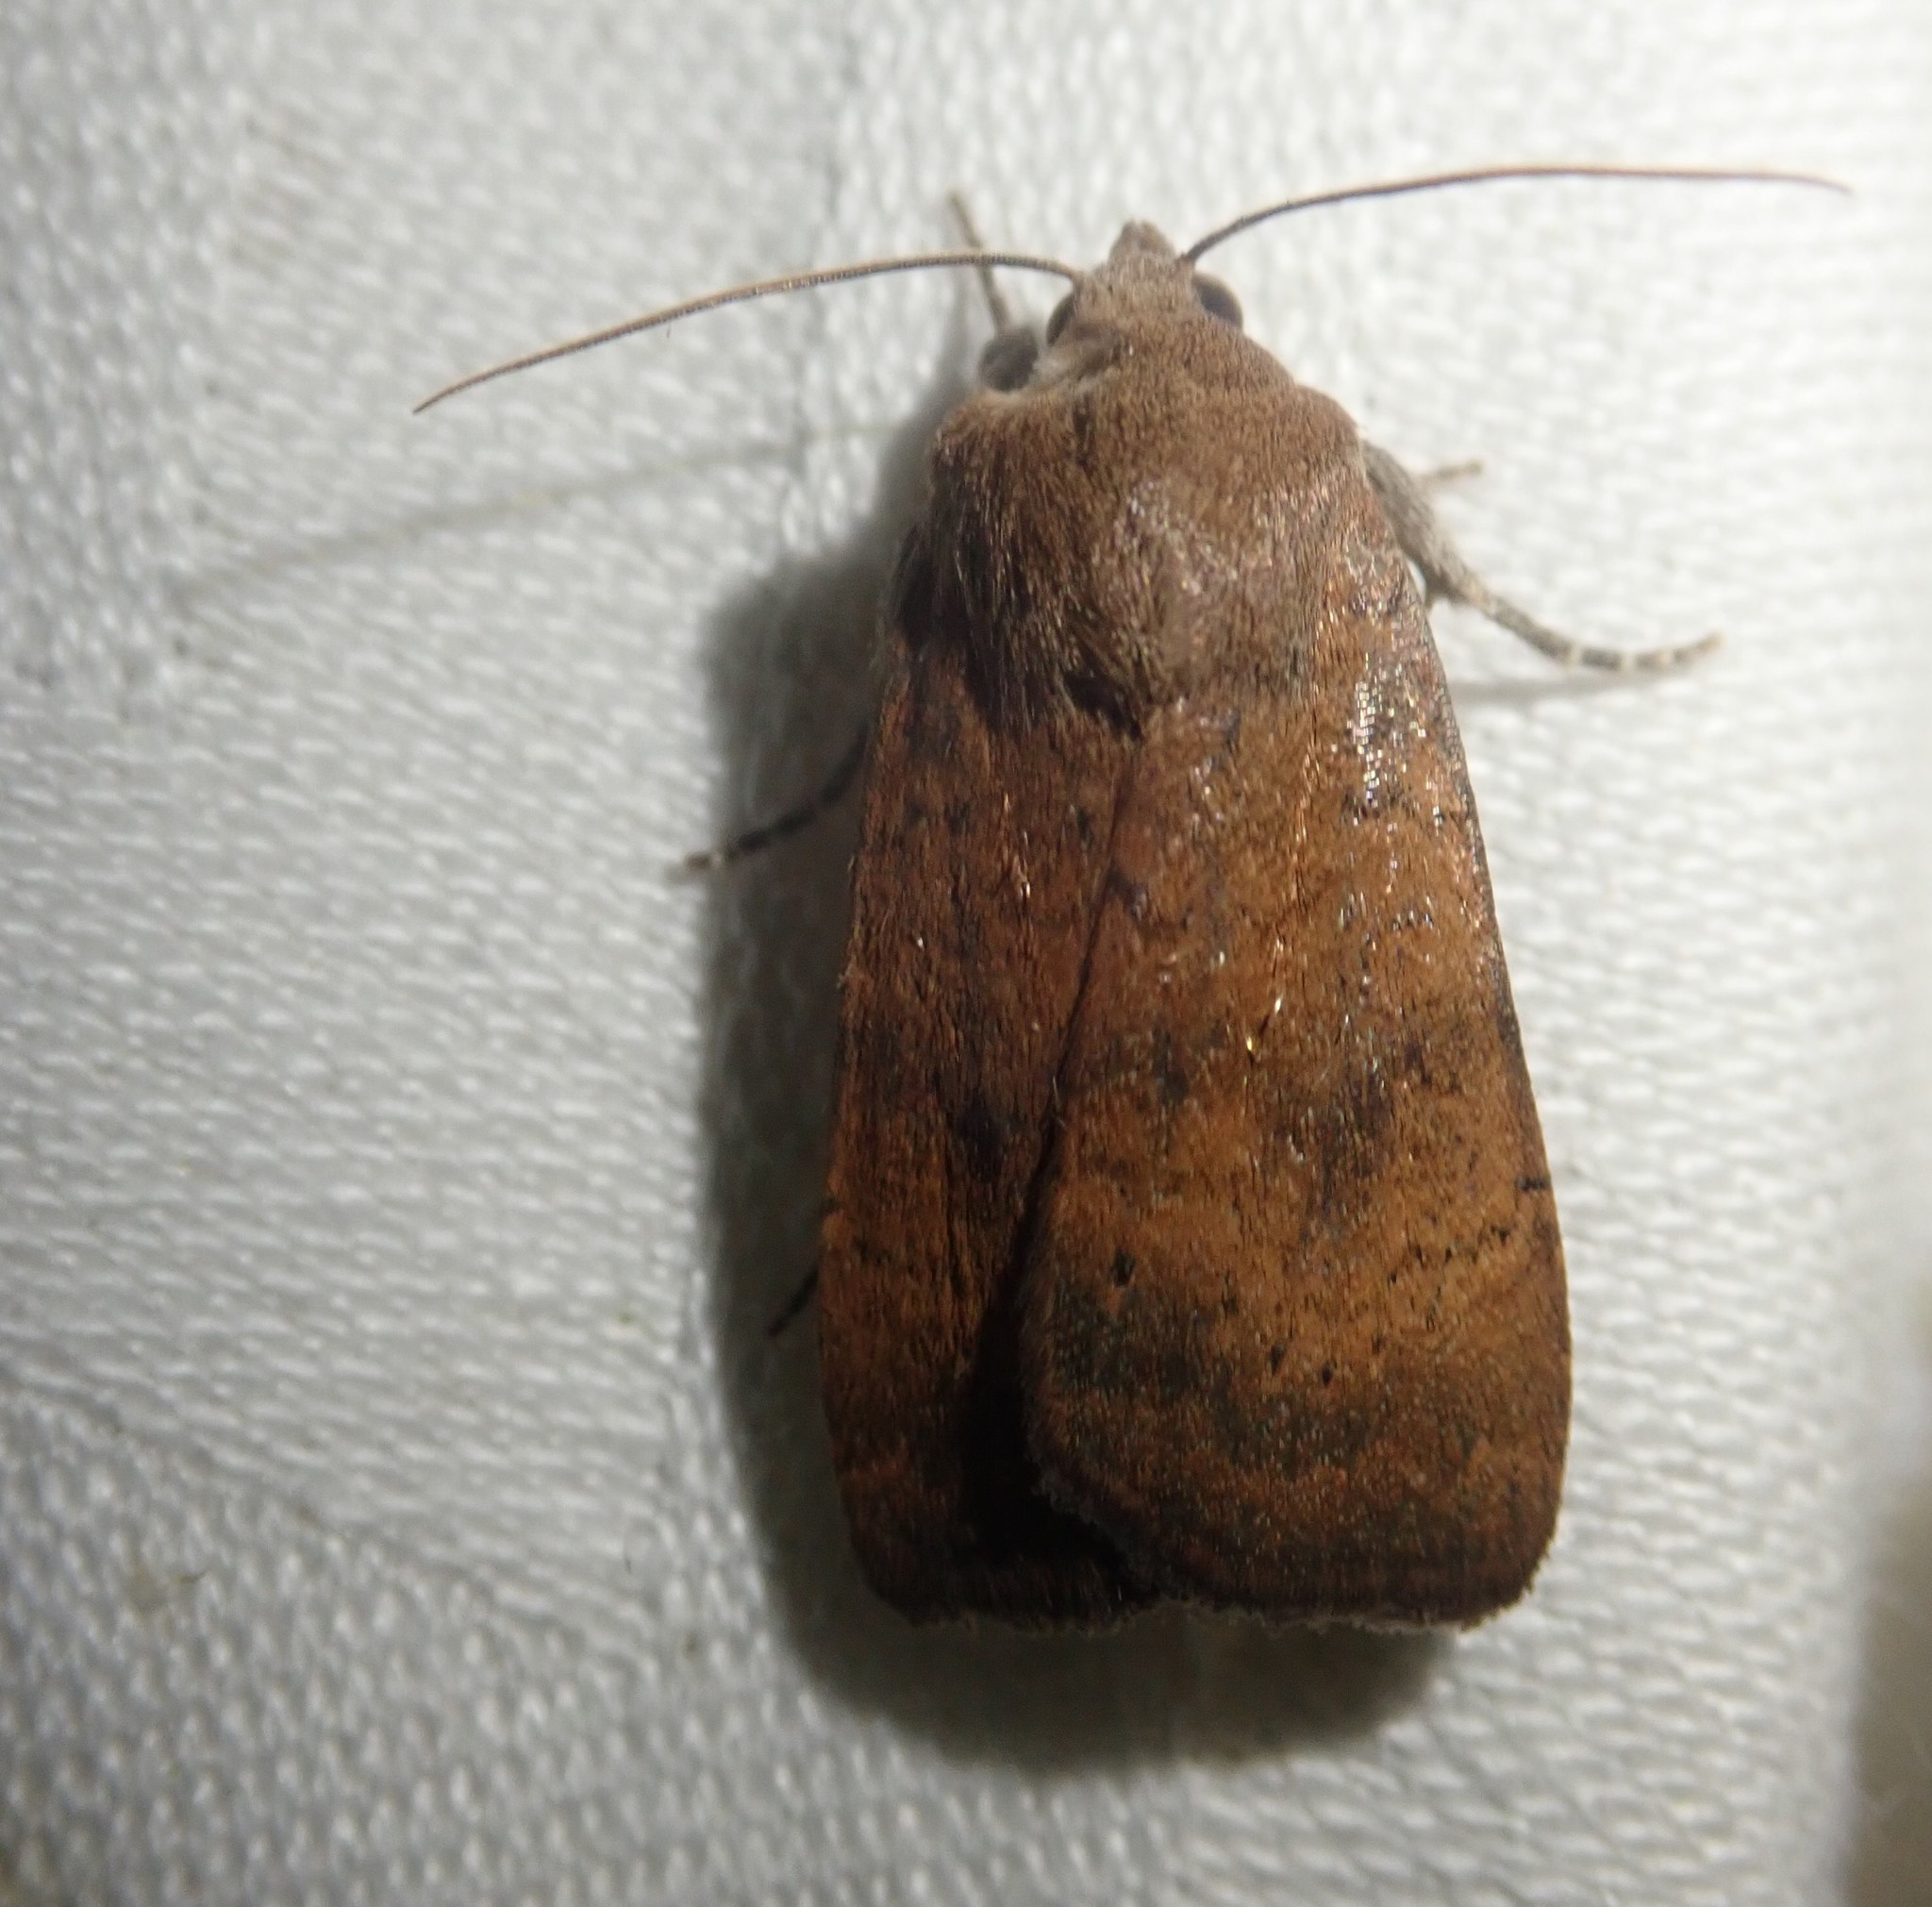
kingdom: Animalia
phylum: Arthropoda
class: Insecta
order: Lepidoptera
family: Noctuidae
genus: Noctua
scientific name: Noctua interjecta
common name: Least yellow underwing
